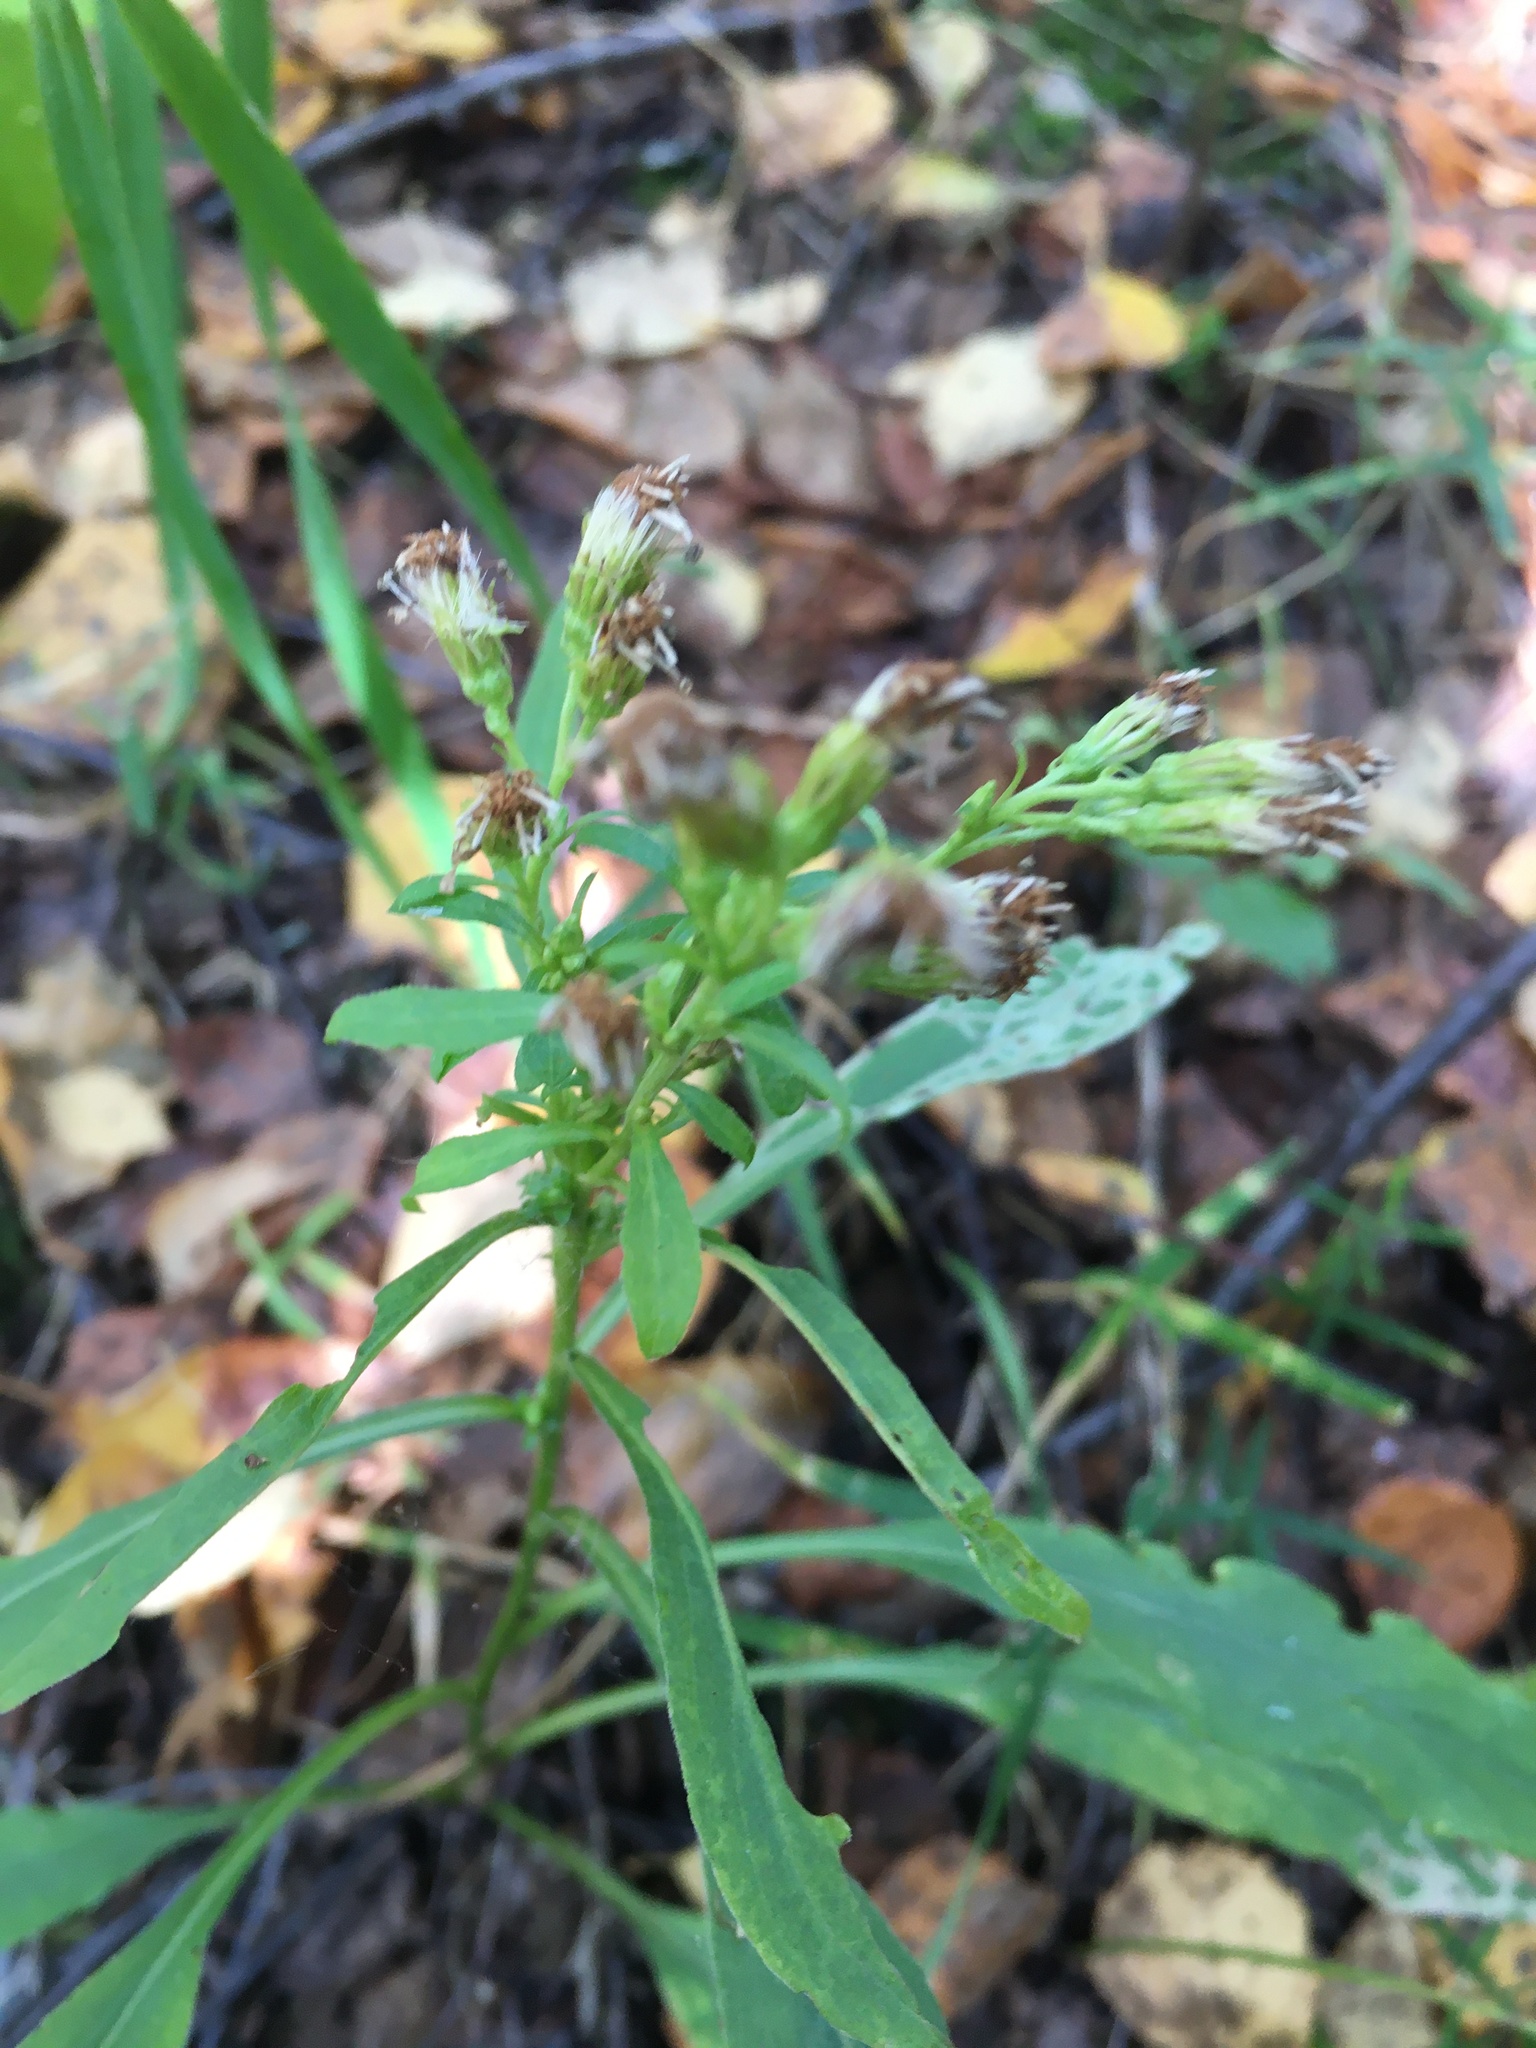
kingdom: Plantae
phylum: Tracheophyta
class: Magnoliopsida
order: Asterales
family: Asteraceae
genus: Solidago
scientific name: Solidago virgaurea
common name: Goldenrod
